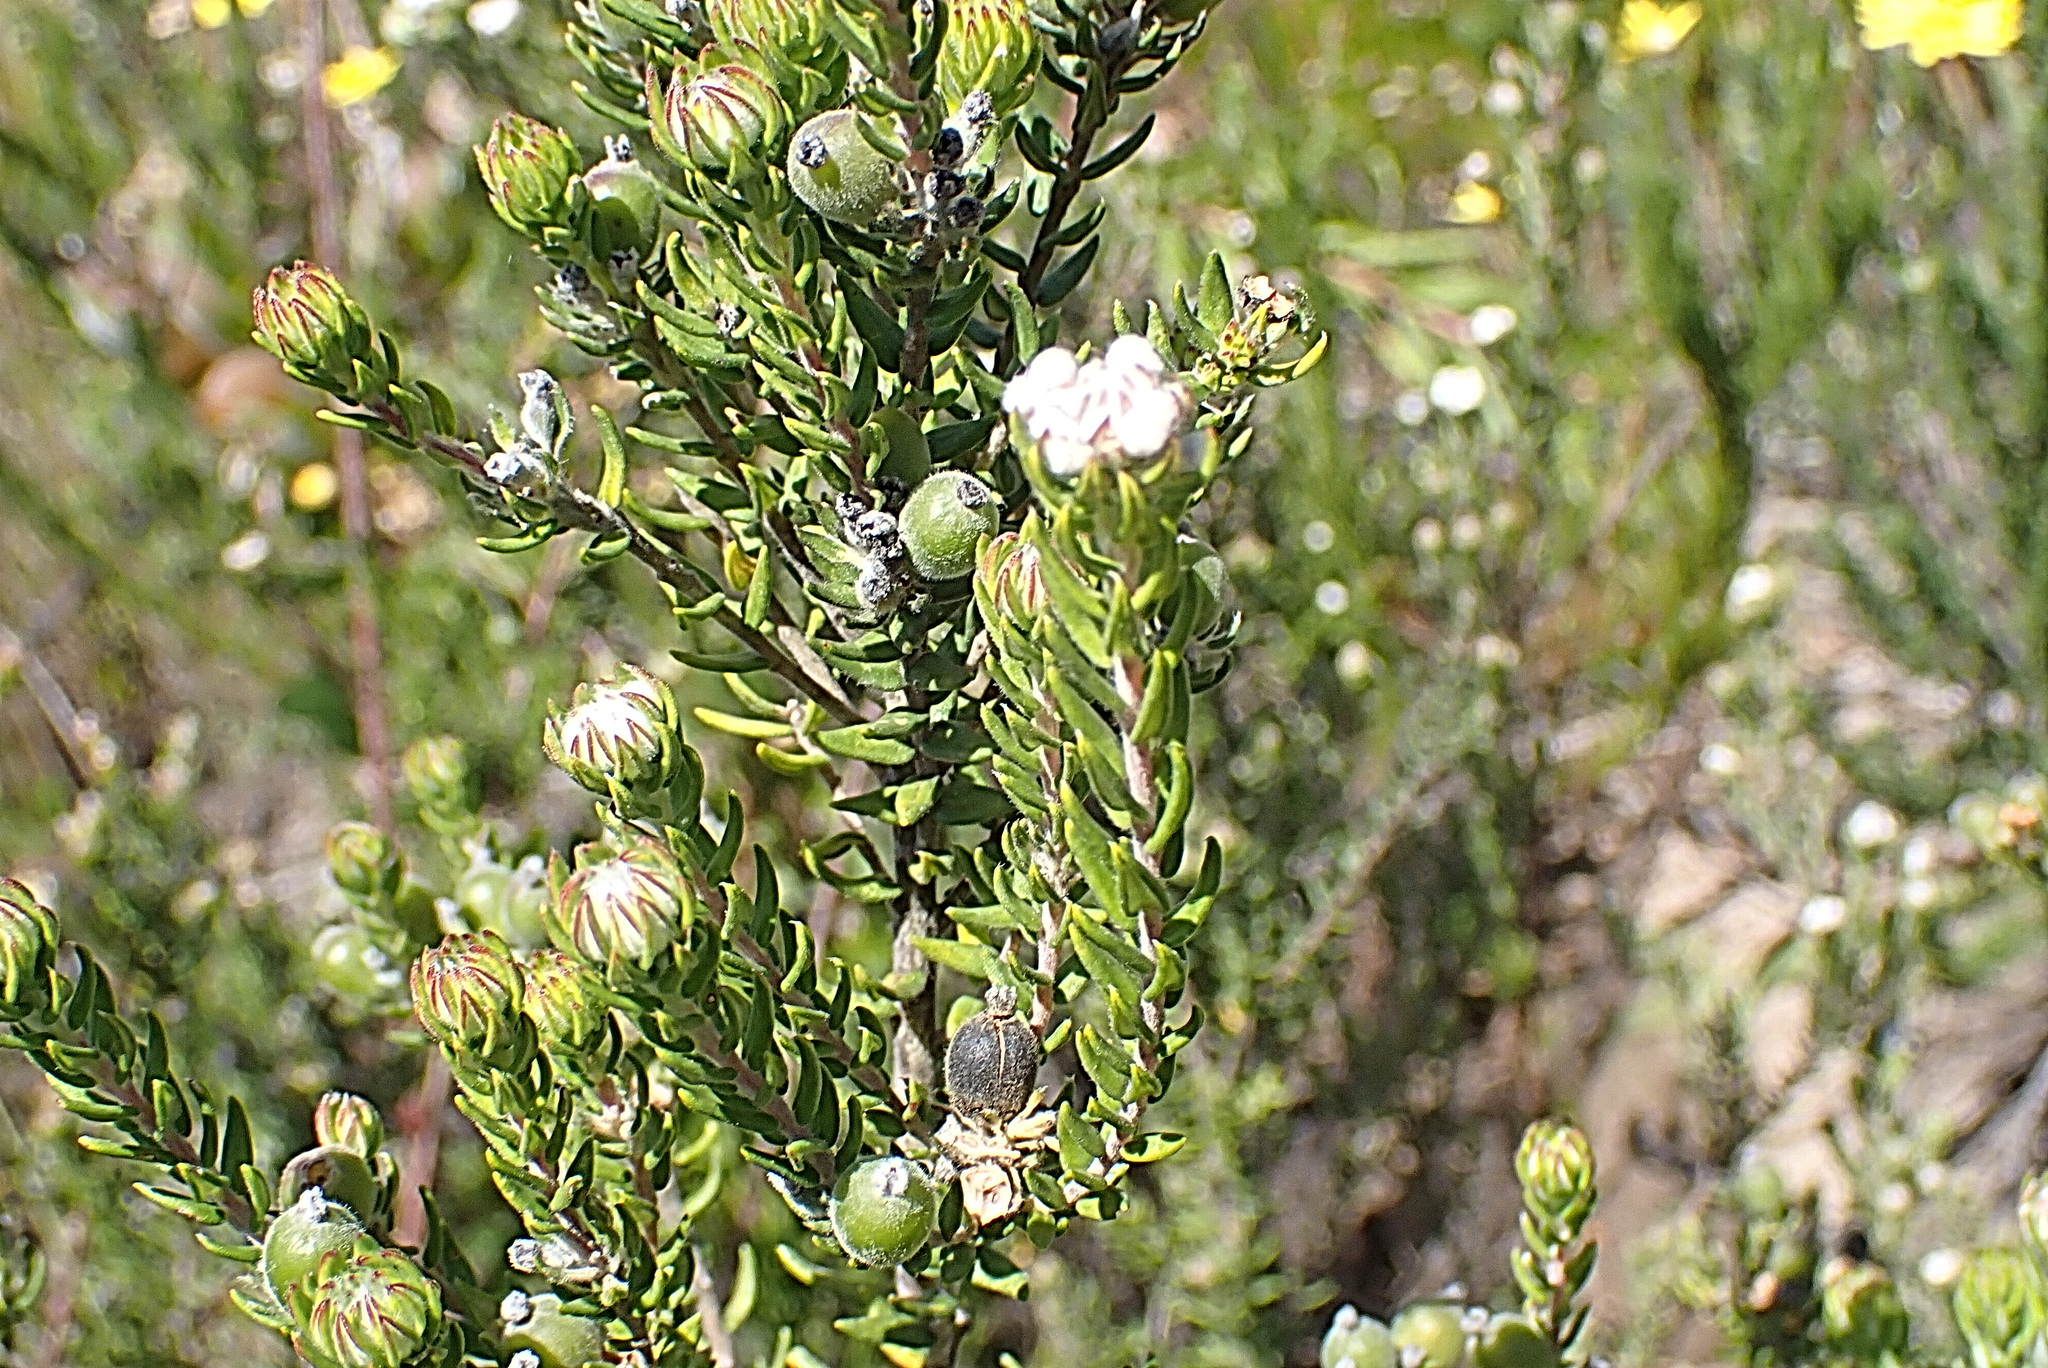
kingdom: Plantae
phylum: Tracheophyta
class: Magnoliopsida
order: Rosales
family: Rhamnaceae
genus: Phylica
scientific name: Phylica purpurea
